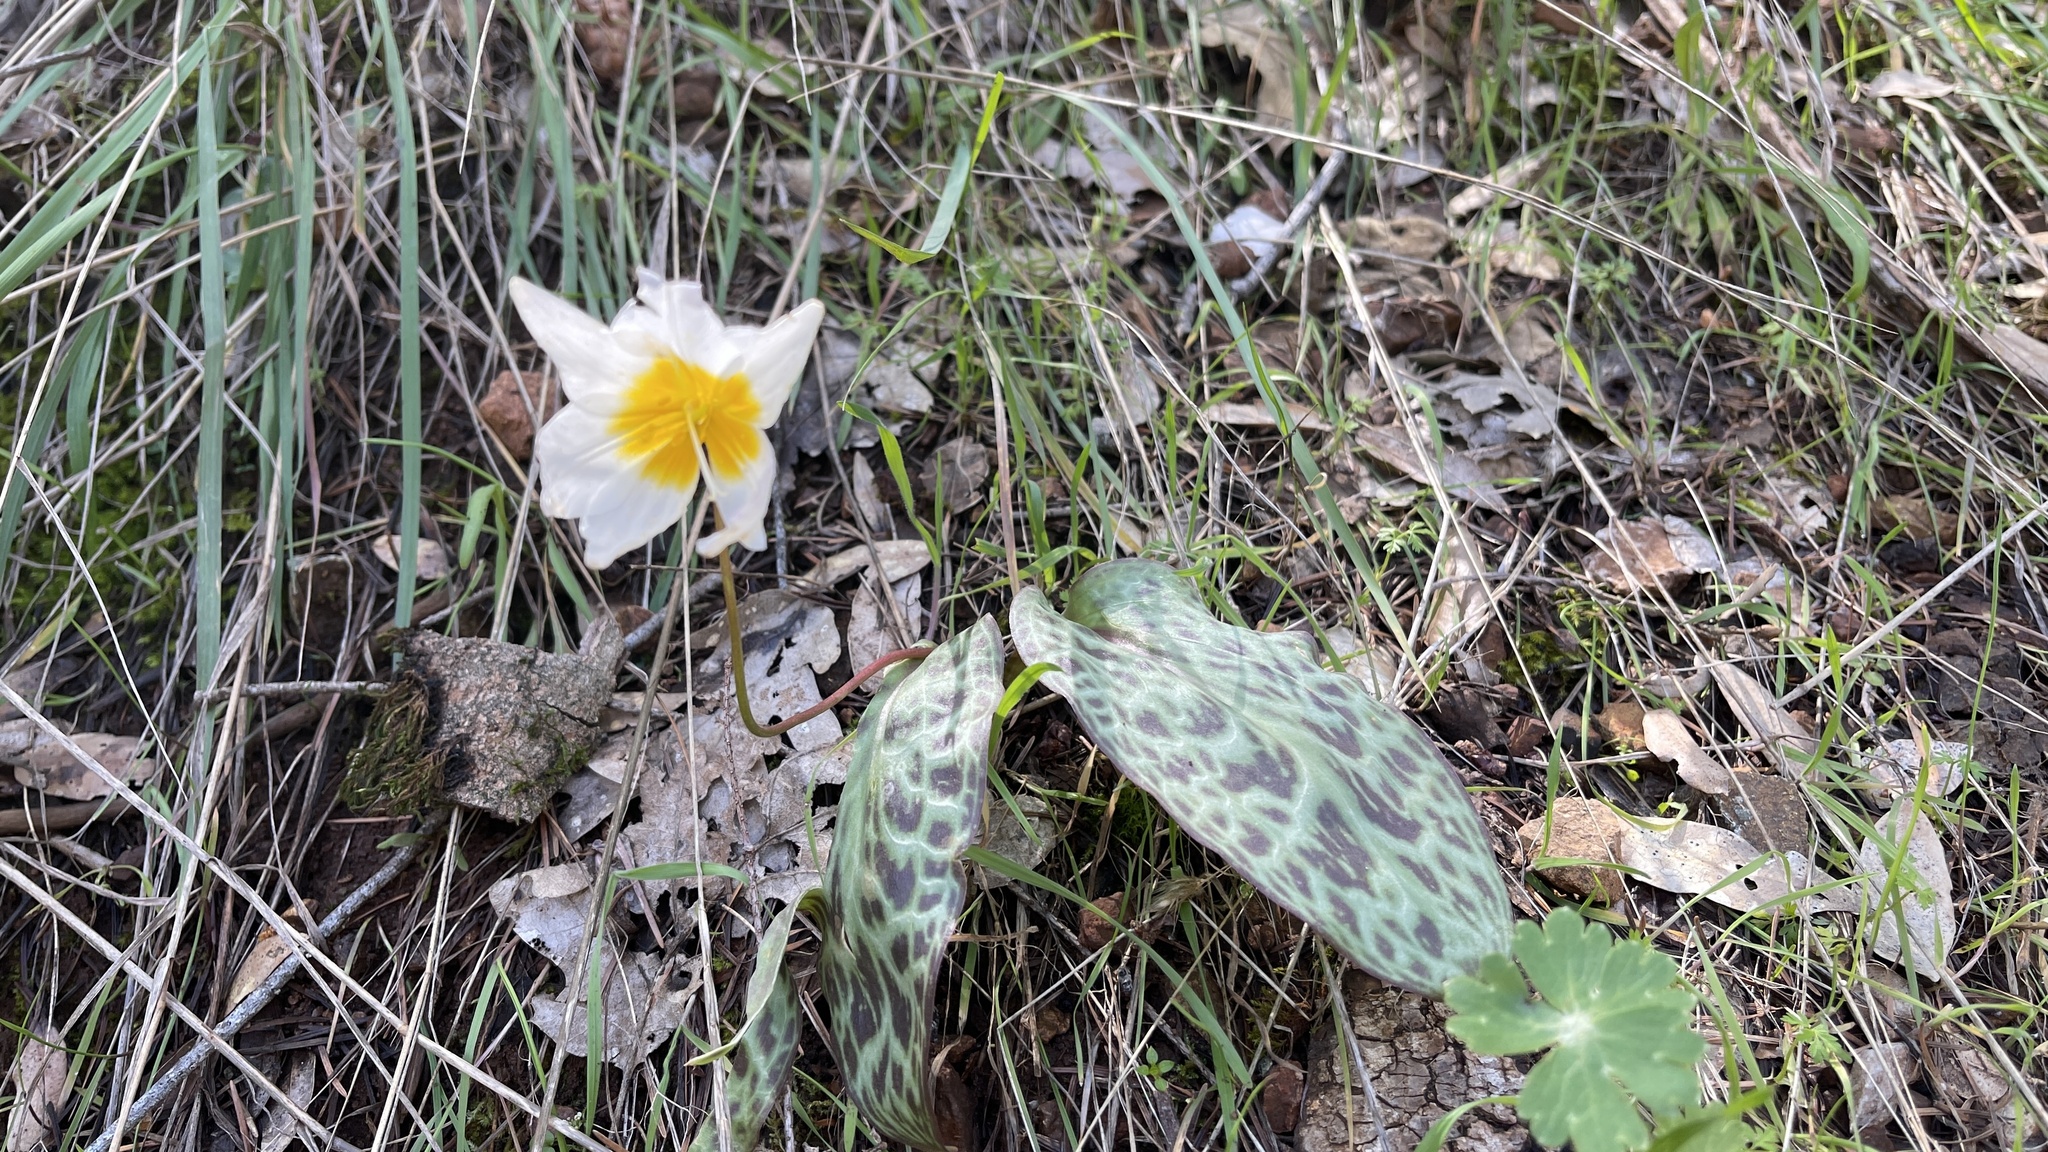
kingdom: Plantae
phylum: Tracheophyta
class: Liliopsida
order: Liliales
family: Liliaceae
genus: Erythronium
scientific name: Erythronium shastense
